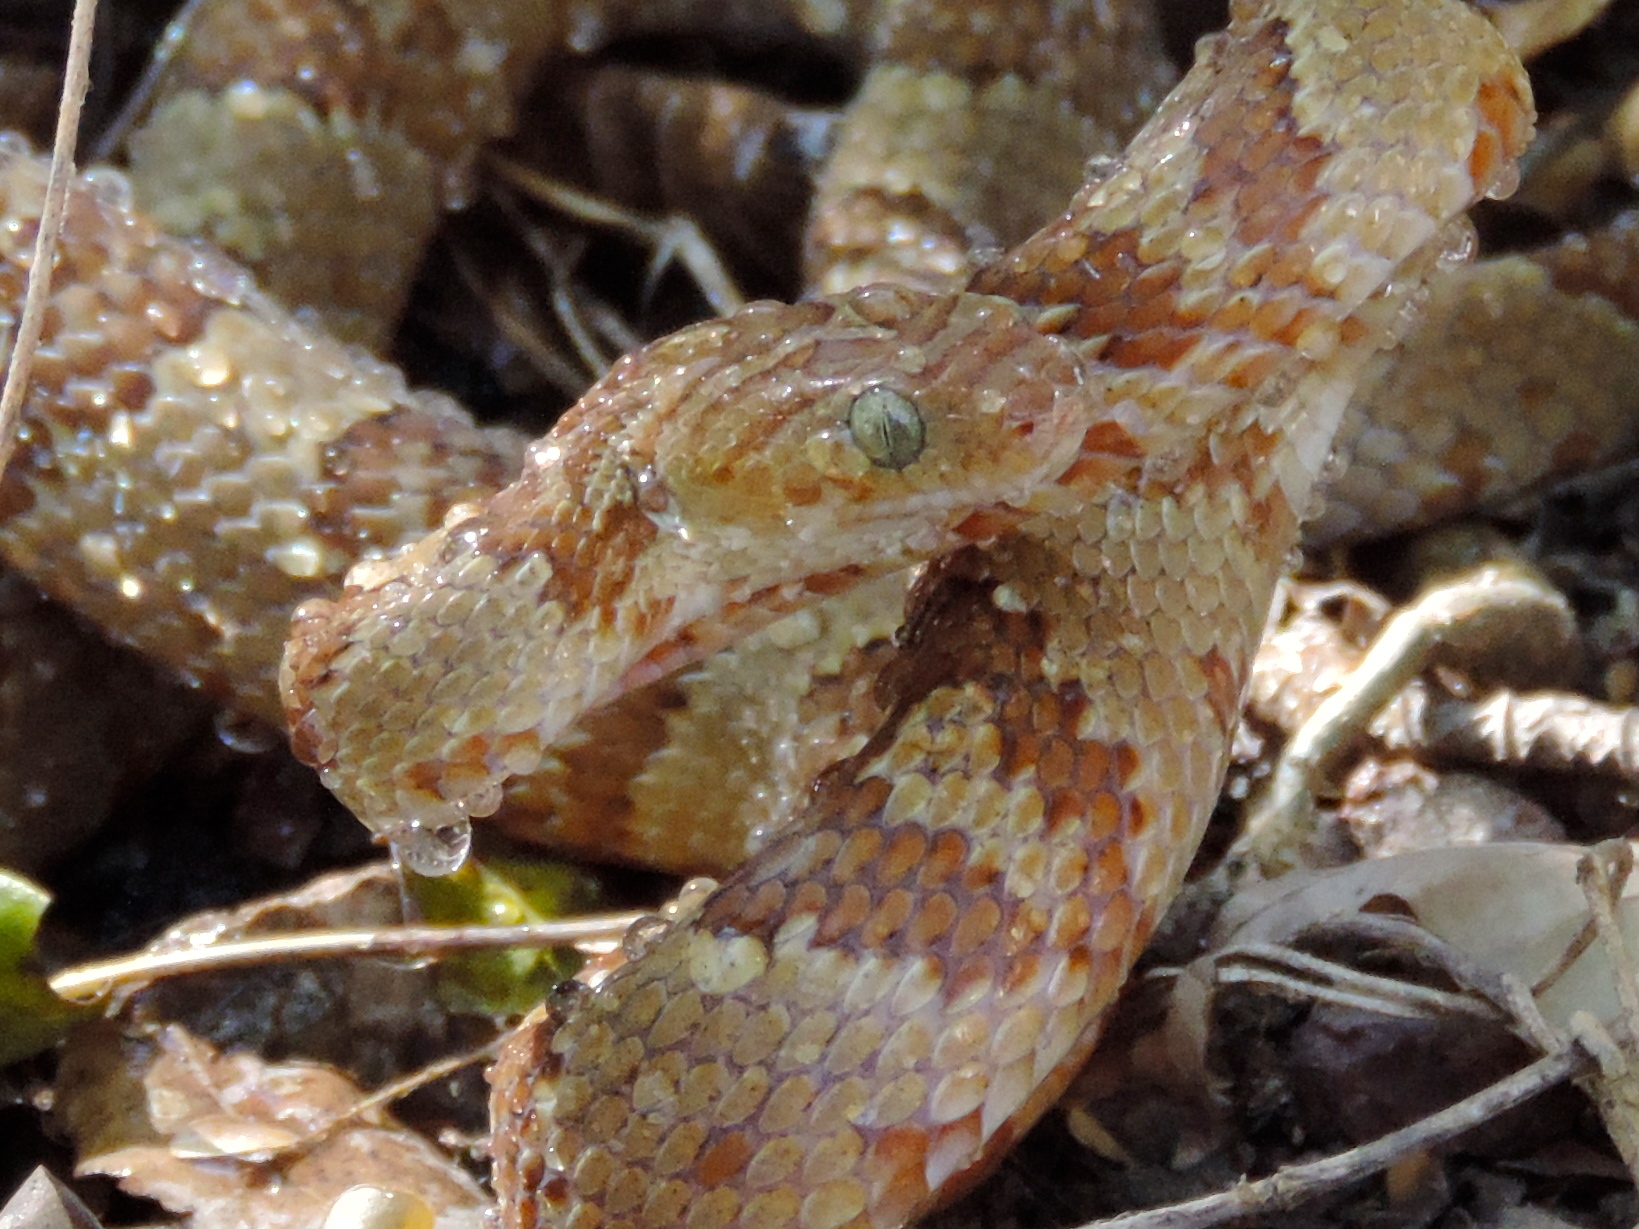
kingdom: Animalia
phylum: Chordata
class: Squamata
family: Colubridae
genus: Trimorphodon
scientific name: Trimorphodon paucimaculatus
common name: Sinaloan lyresnake
